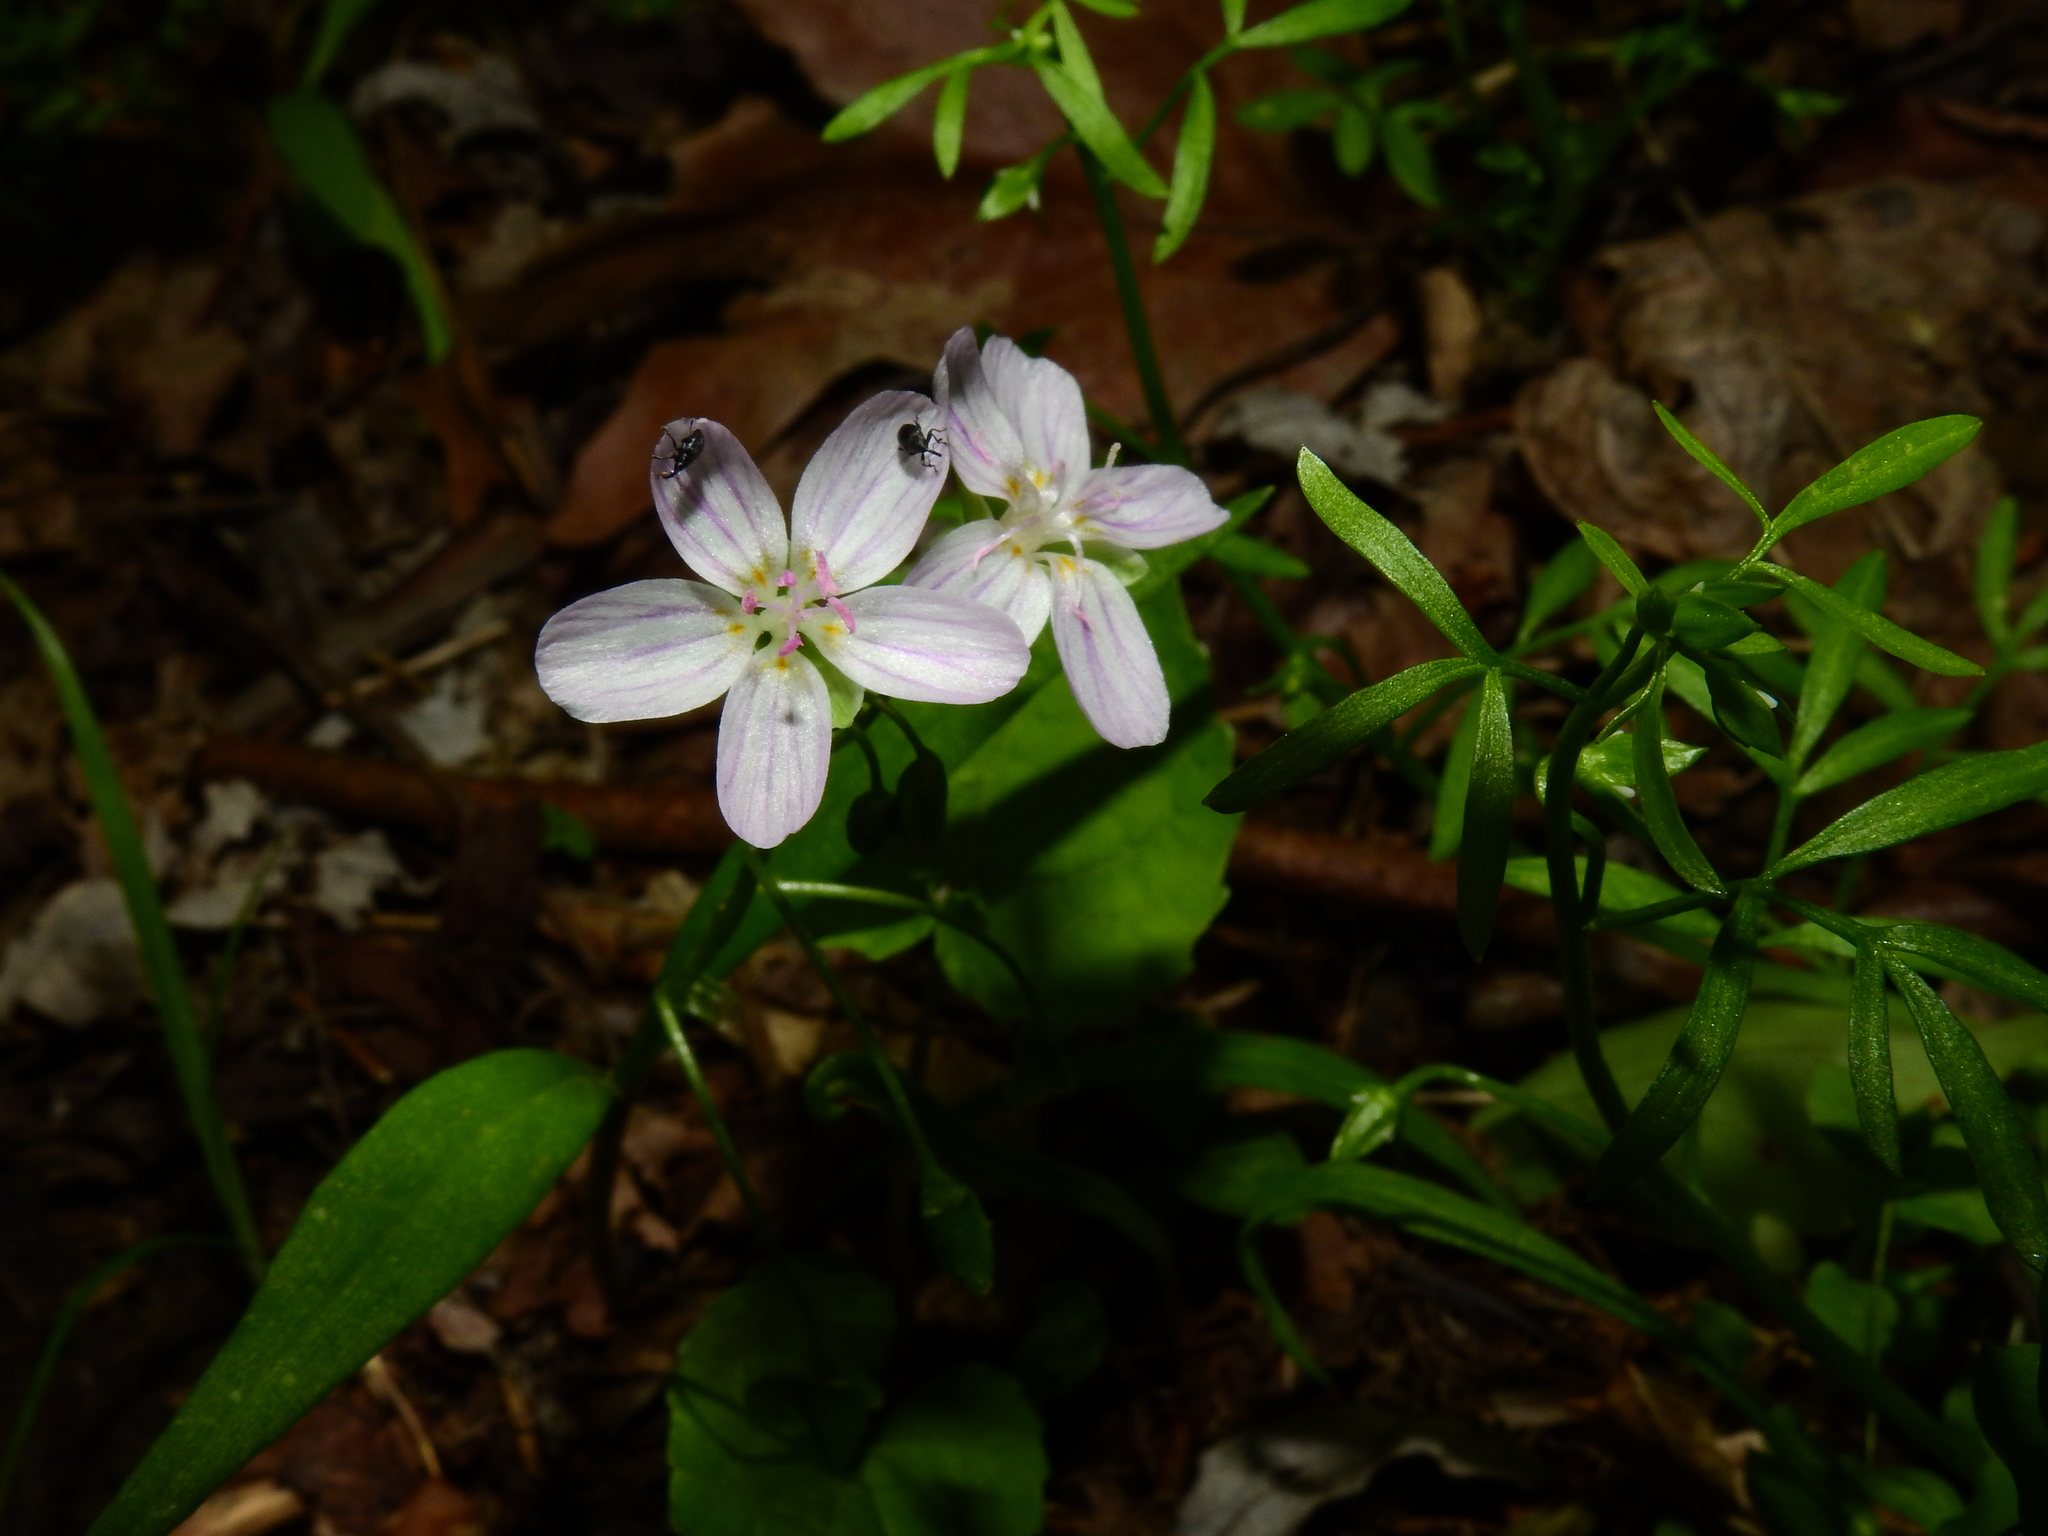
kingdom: Plantae
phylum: Tracheophyta
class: Magnoliopsida
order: Caryophyllales
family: Montiaceae
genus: Claytonia
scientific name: Claytonia virginica
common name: Virginia springbeauty
